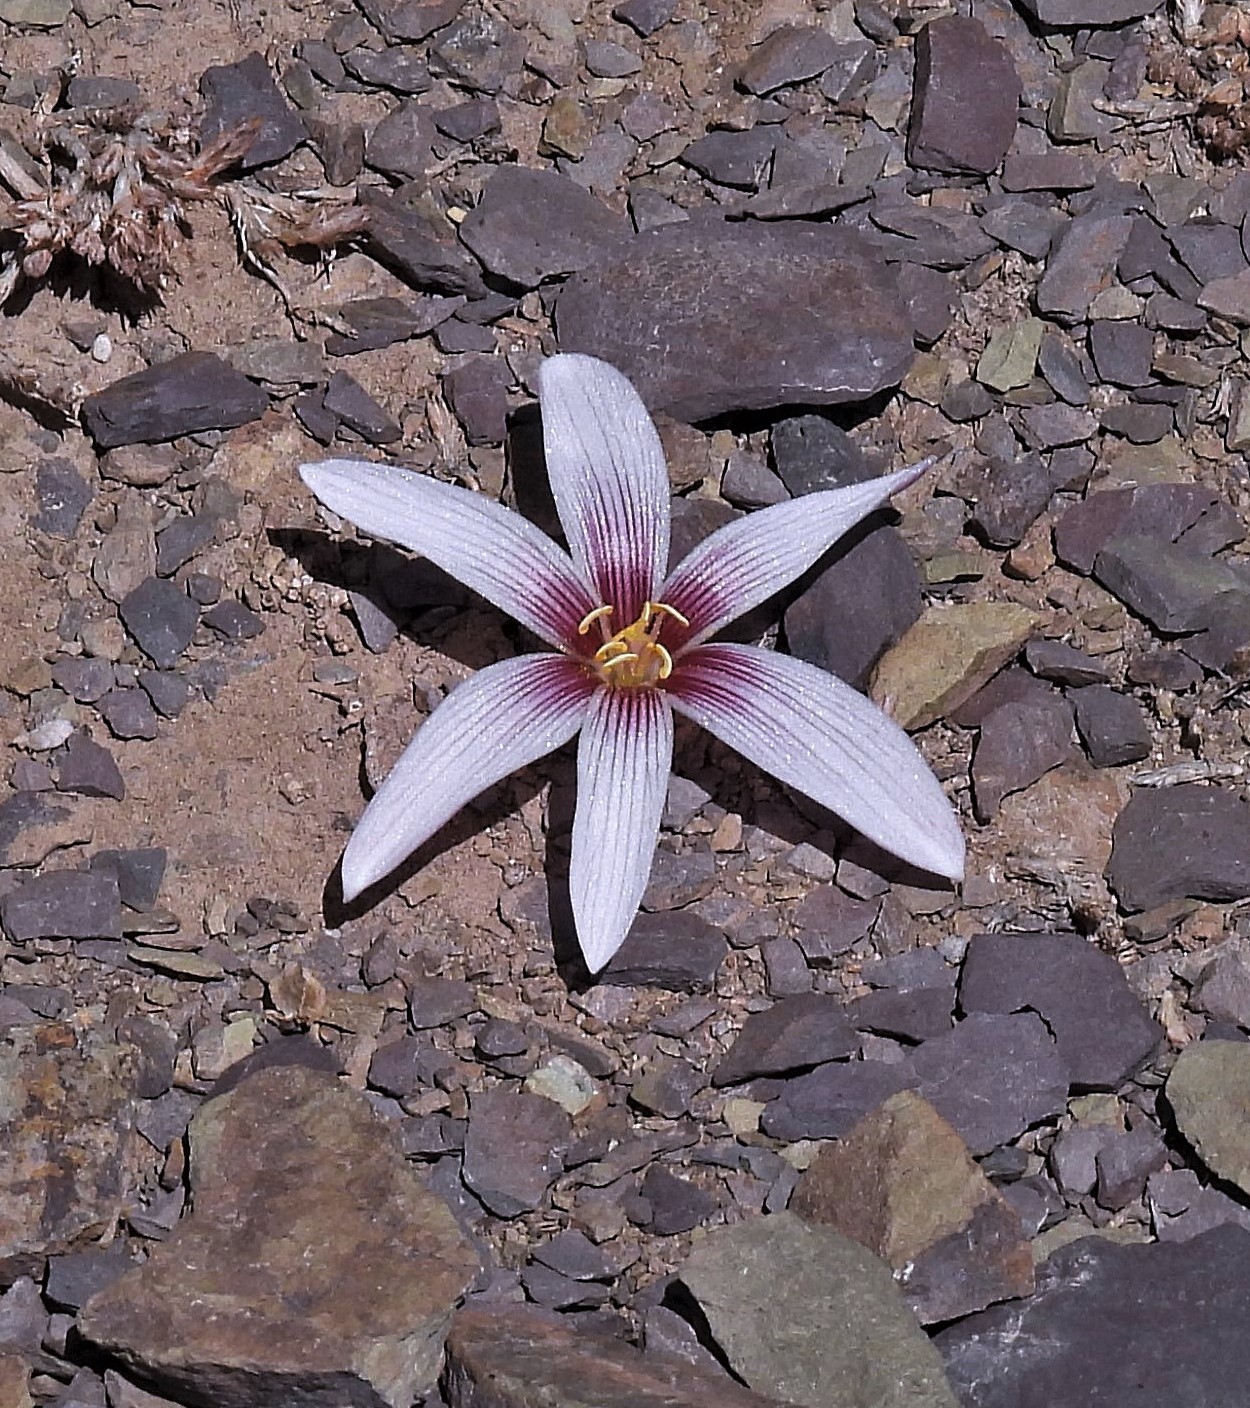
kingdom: Plantae
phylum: Tracheophyta
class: Liliopsida
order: Asparagales
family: Amaryllidaceae
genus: Zephyranthes
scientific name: Zephyranthes andina
